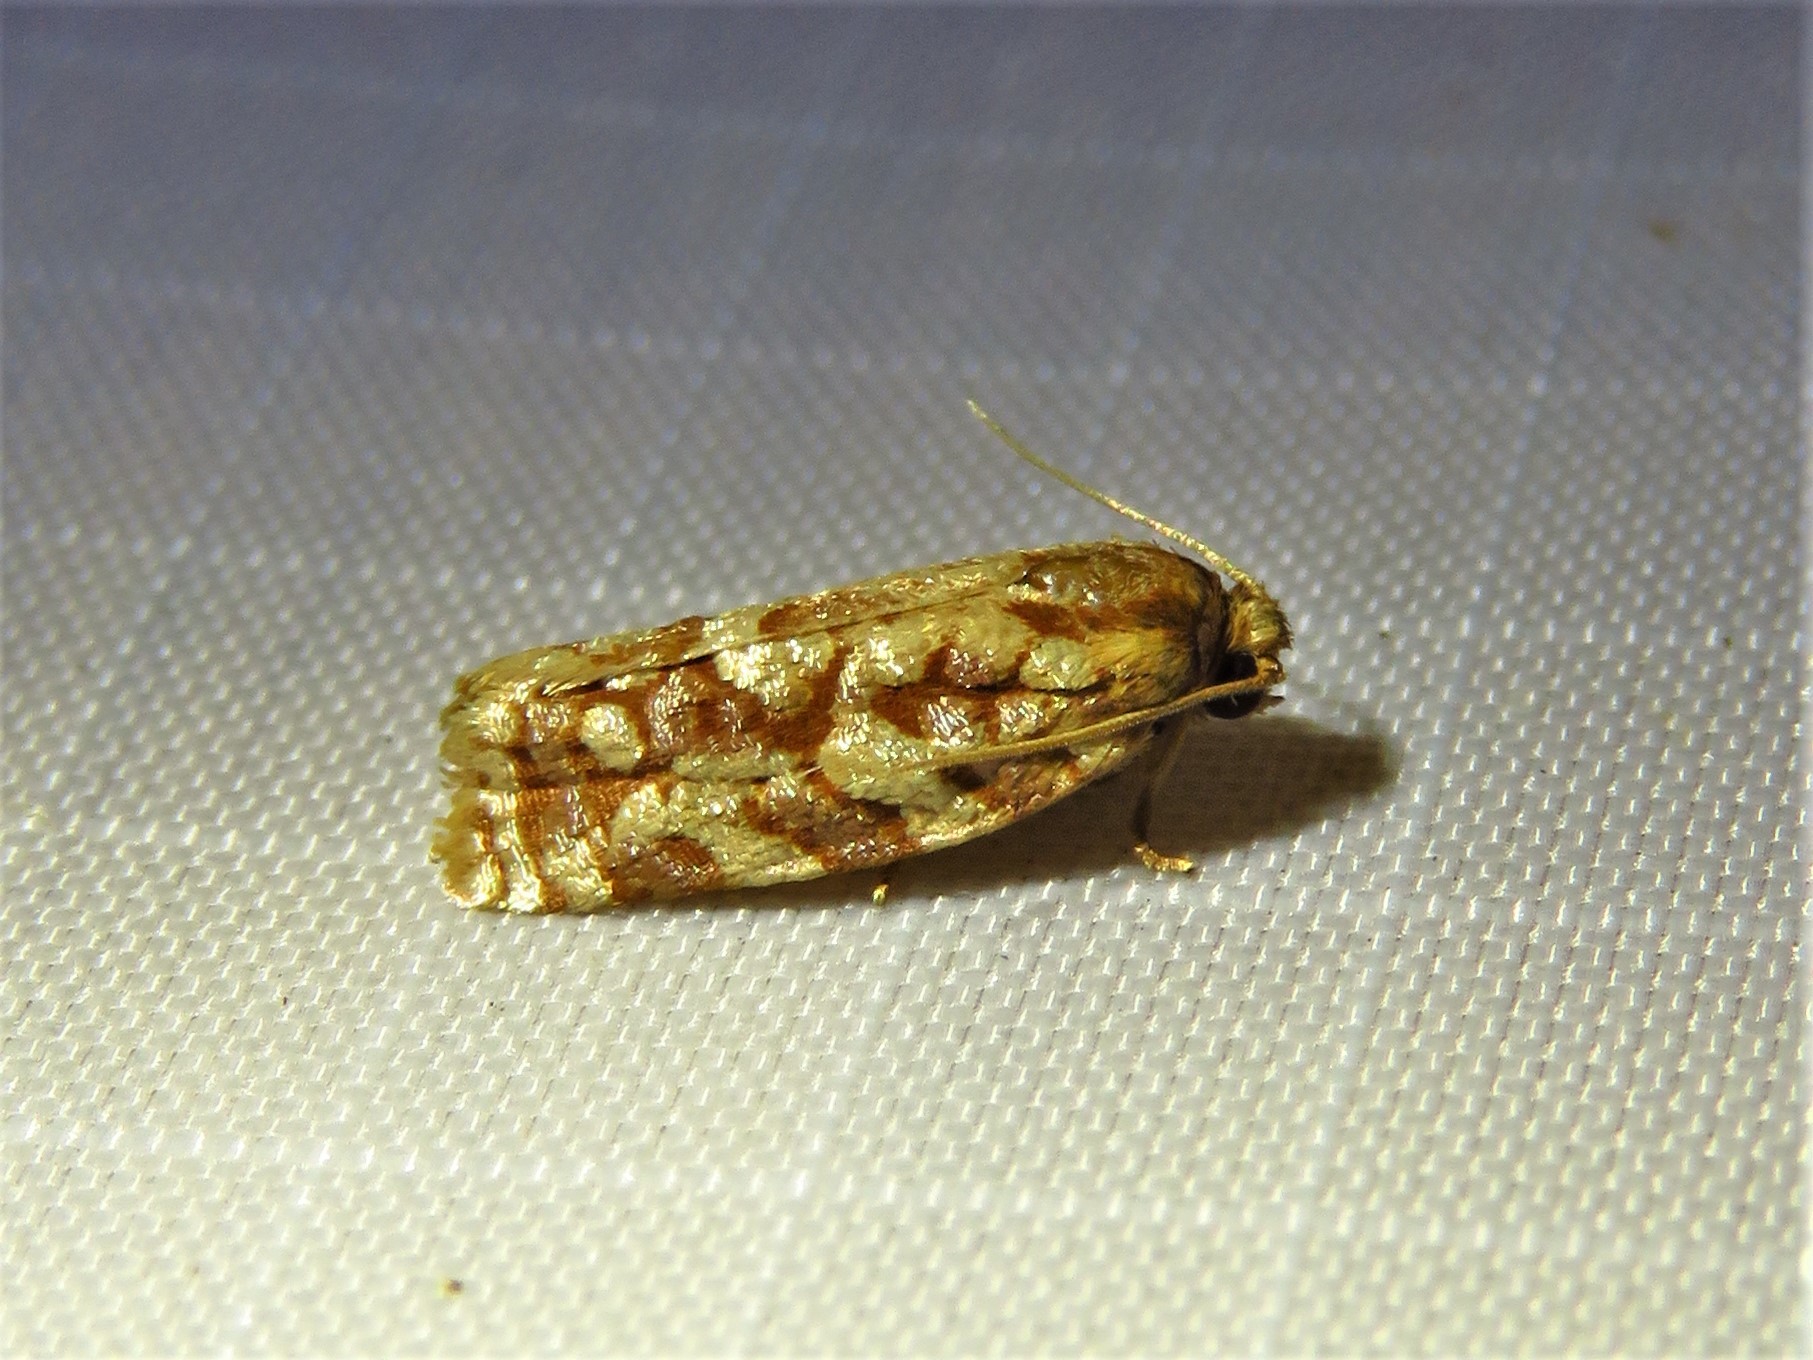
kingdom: Animalia
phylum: Arthropoda
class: Insecta
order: Lepidoptera
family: Tortricidae
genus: Choristoneura
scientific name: Choristoneura houstonana
